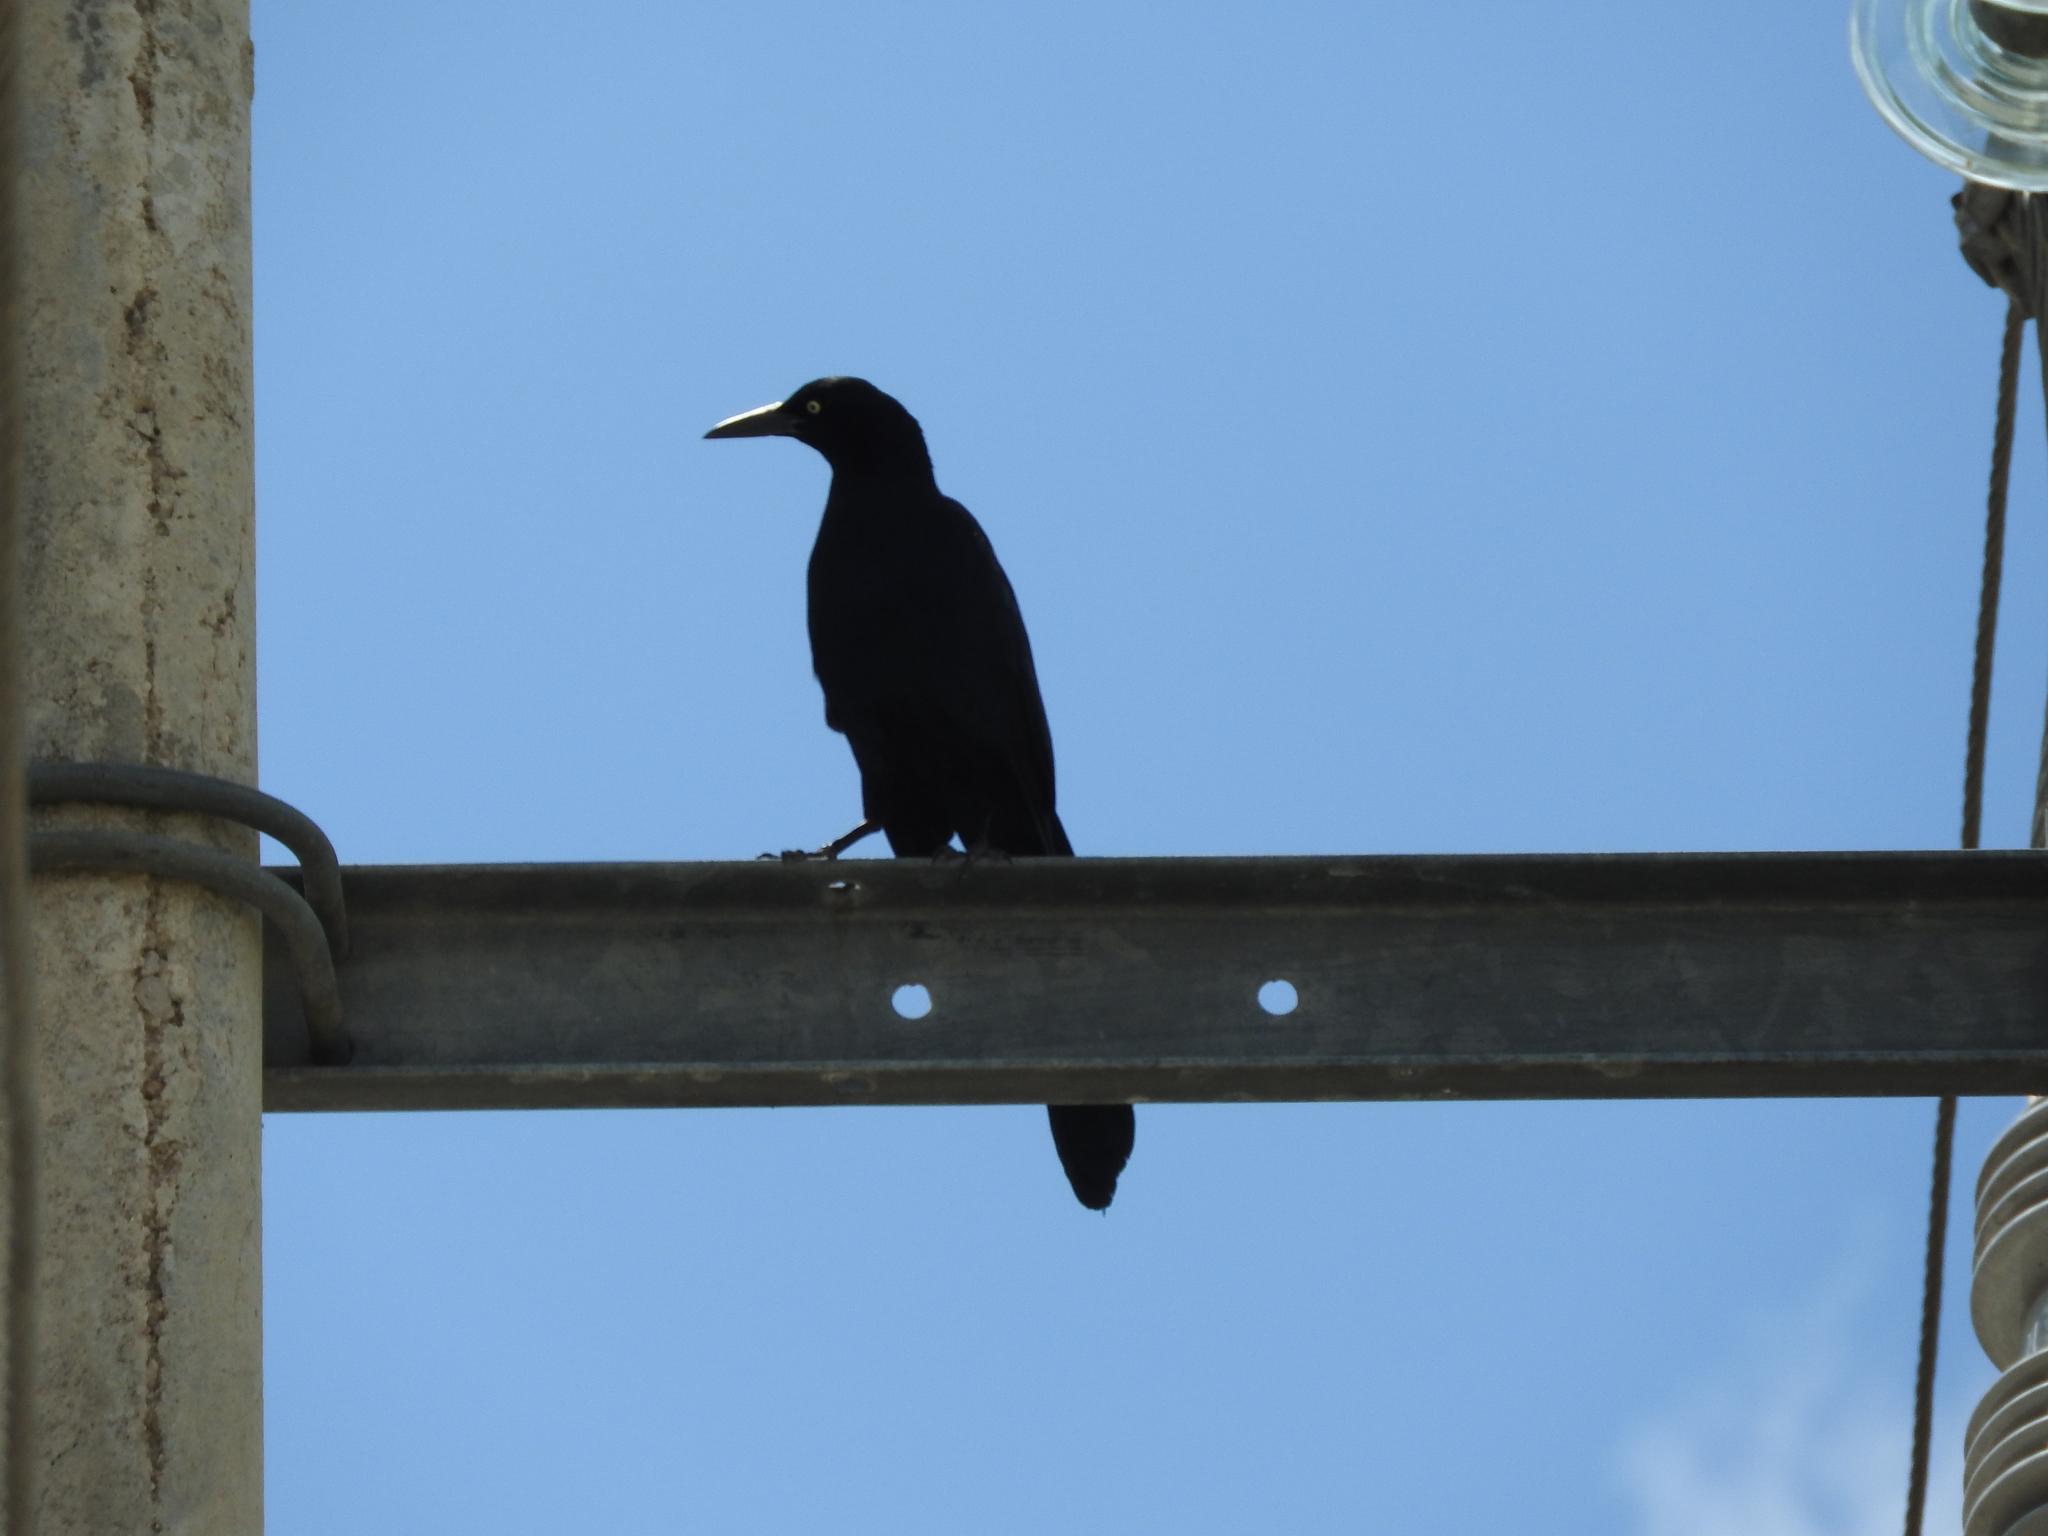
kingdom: Animalia
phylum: Chordata
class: Aves
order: Passeriformes
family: Icteridae
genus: Quiscalus
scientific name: Quiscalus mexicanus
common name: Great-tailed grackle
